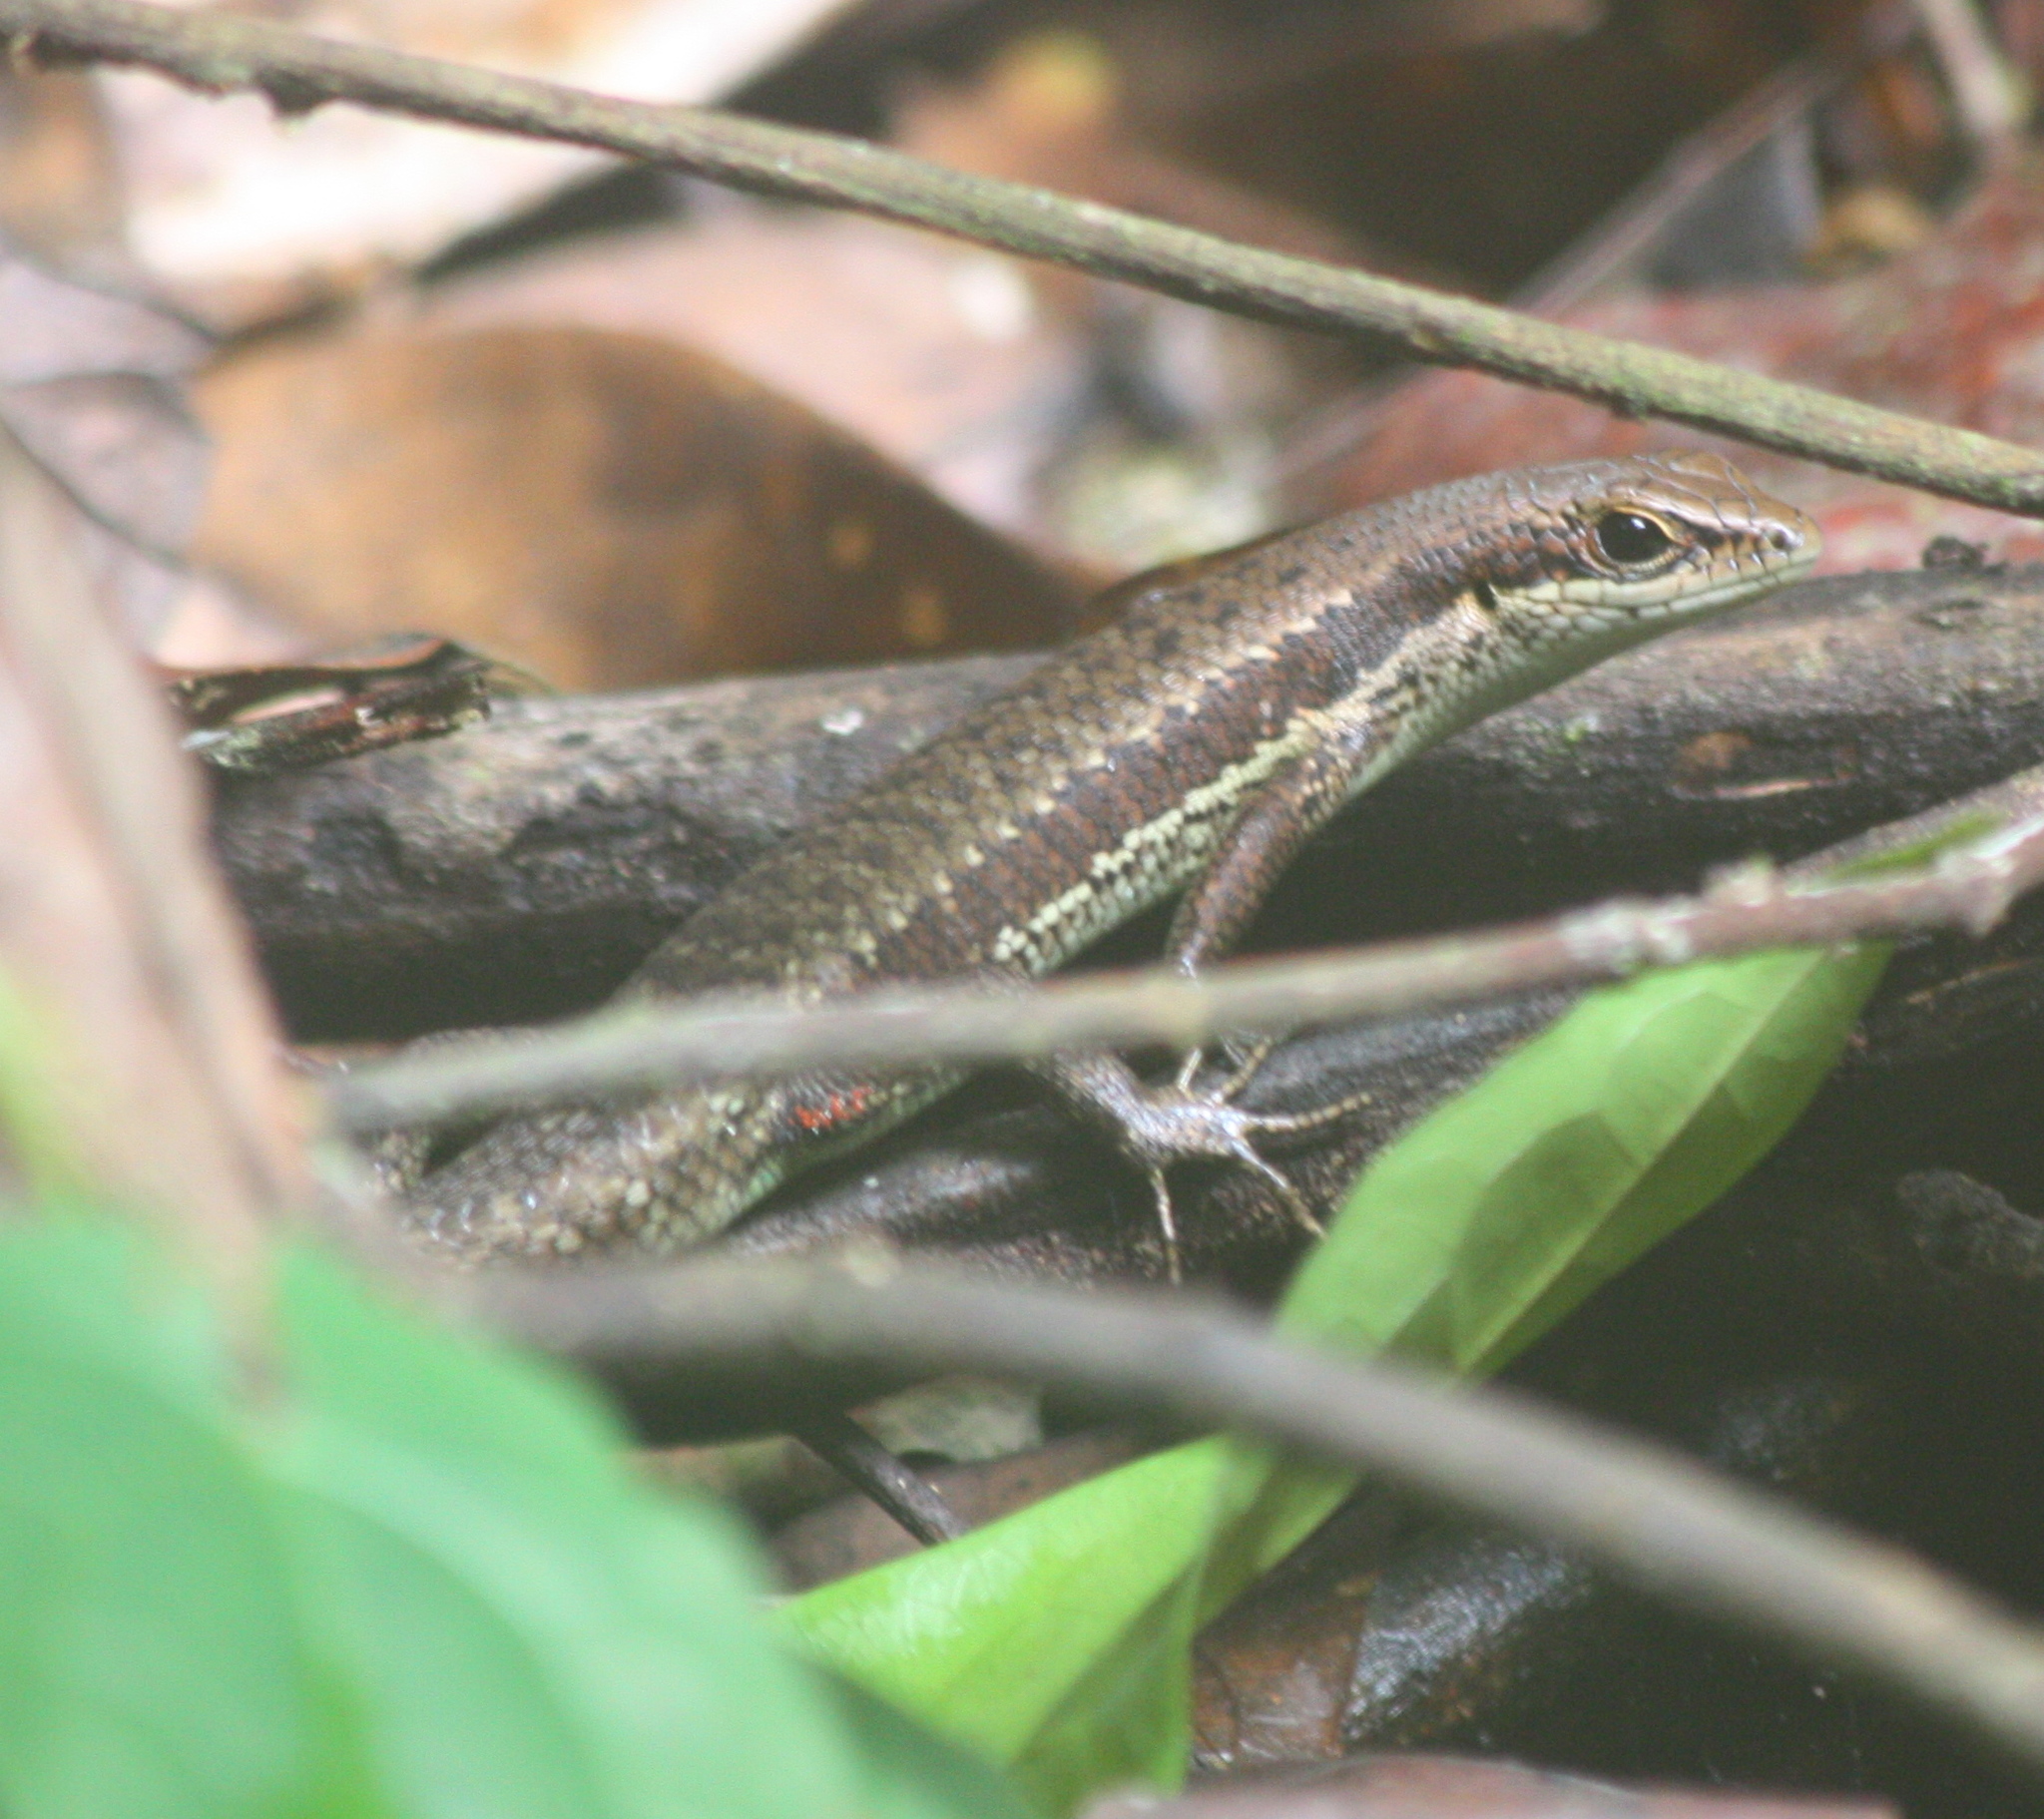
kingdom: Animalia
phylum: Chordata
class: Squamata
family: Scincidae
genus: Trachylepis
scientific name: Trachylepis affinis
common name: Senegal mabuya
